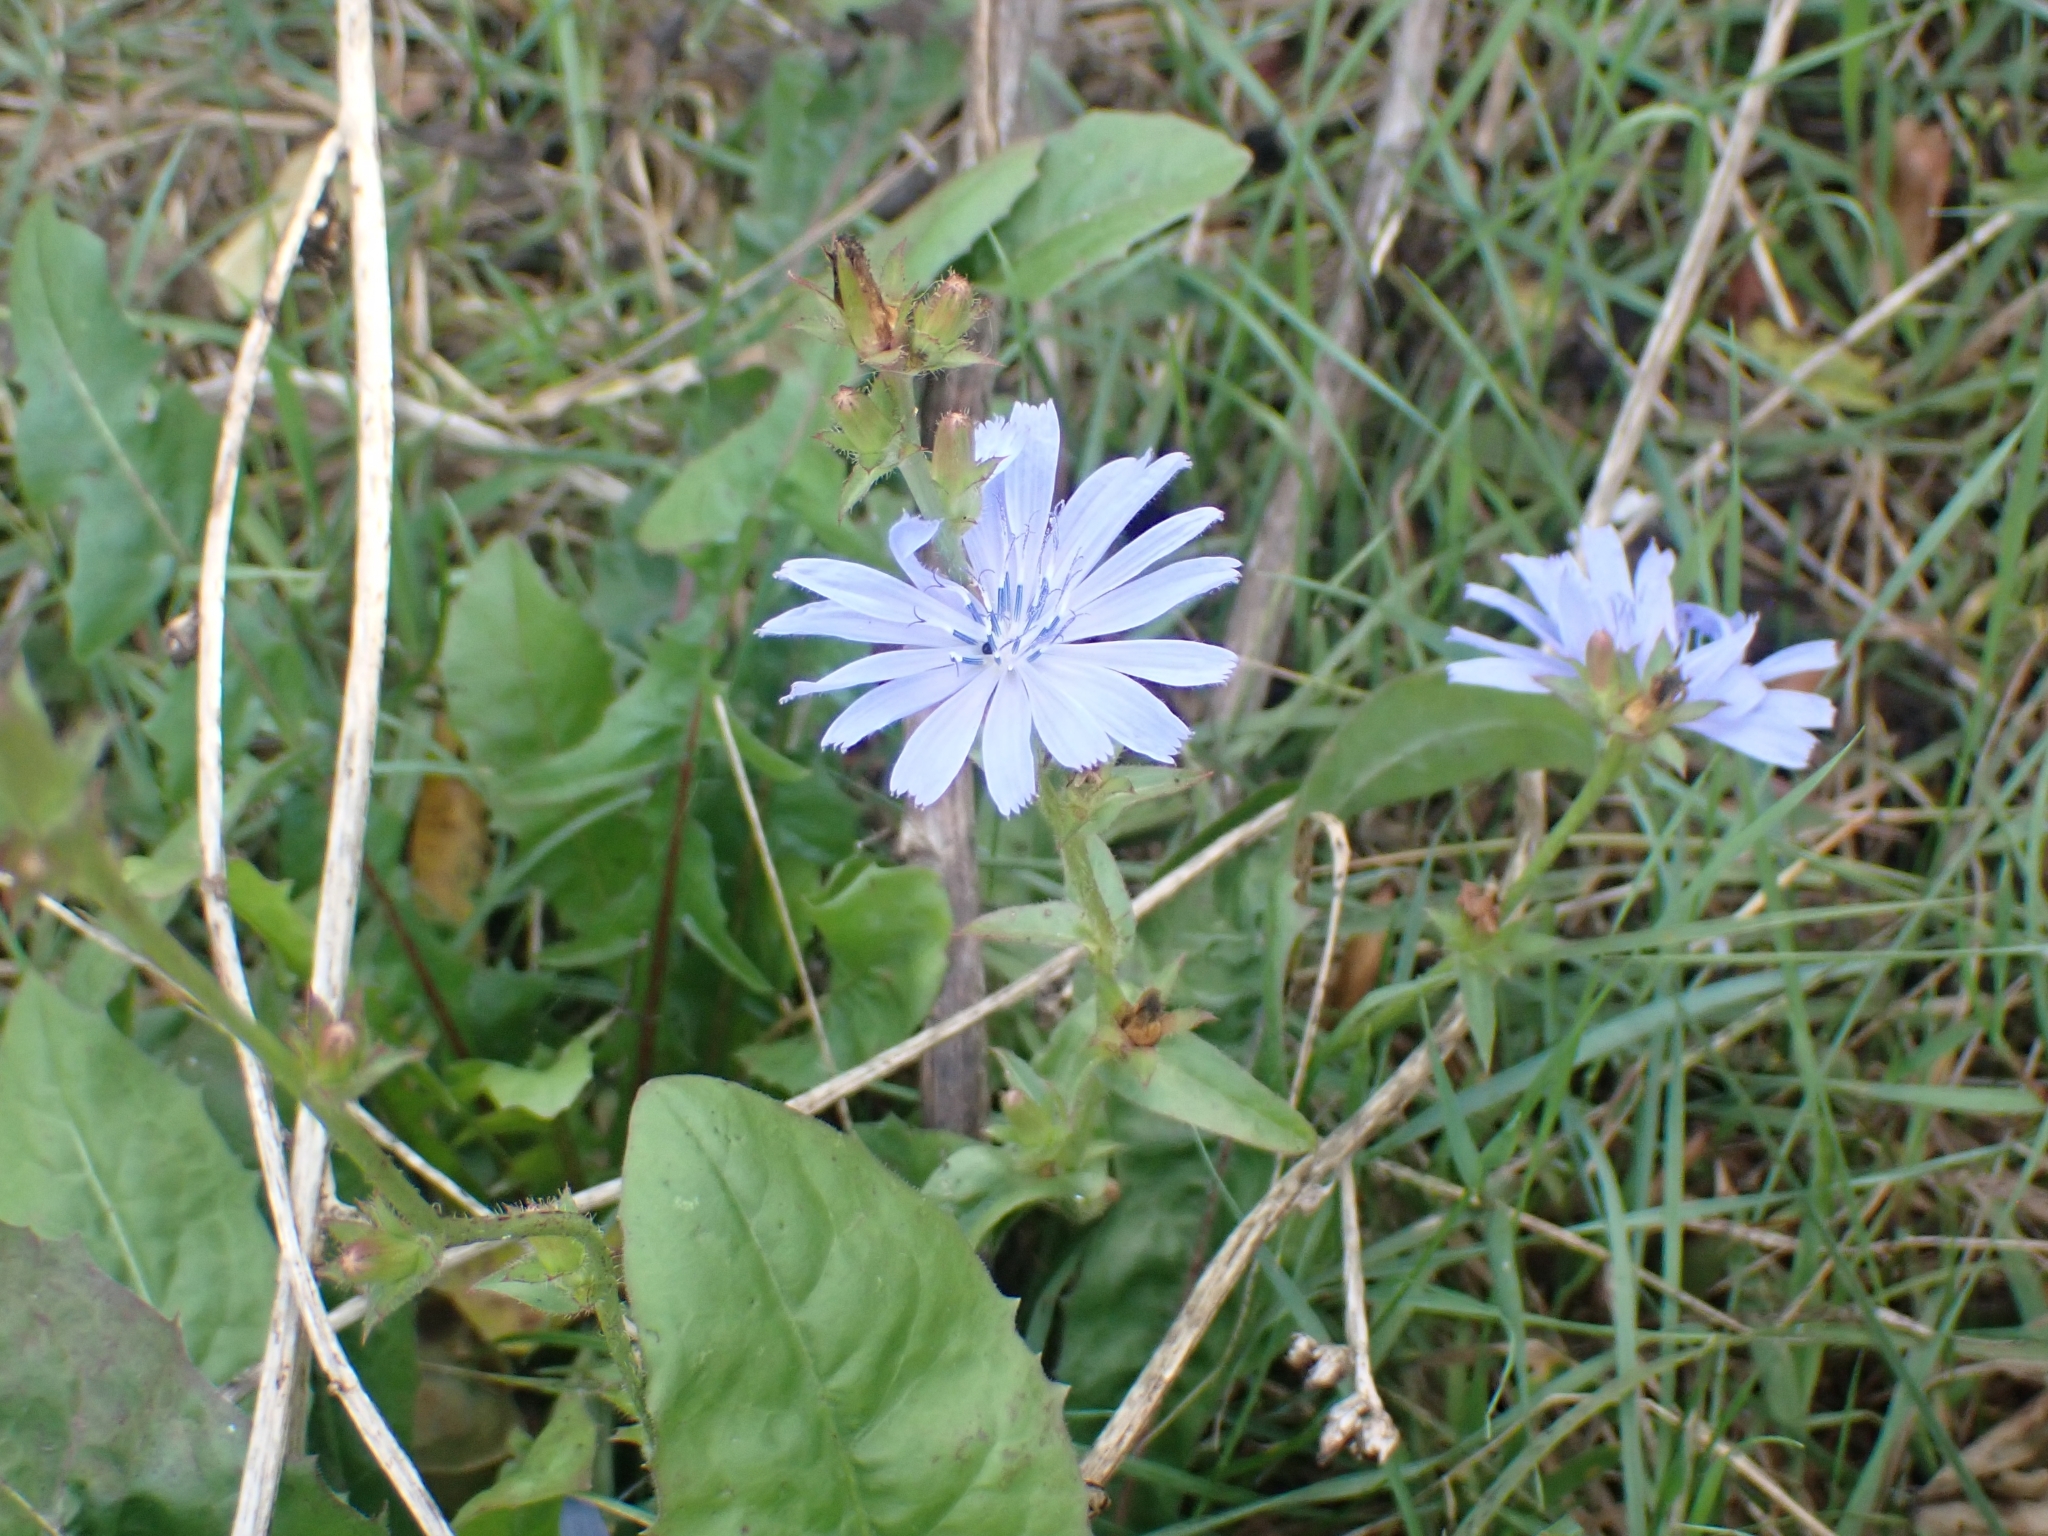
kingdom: Plantae
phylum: Tracheophyta
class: Magnoliopsida
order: Asterales
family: Asteraceae
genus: Cichorium
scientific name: Cichorium intybus
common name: Chicory
